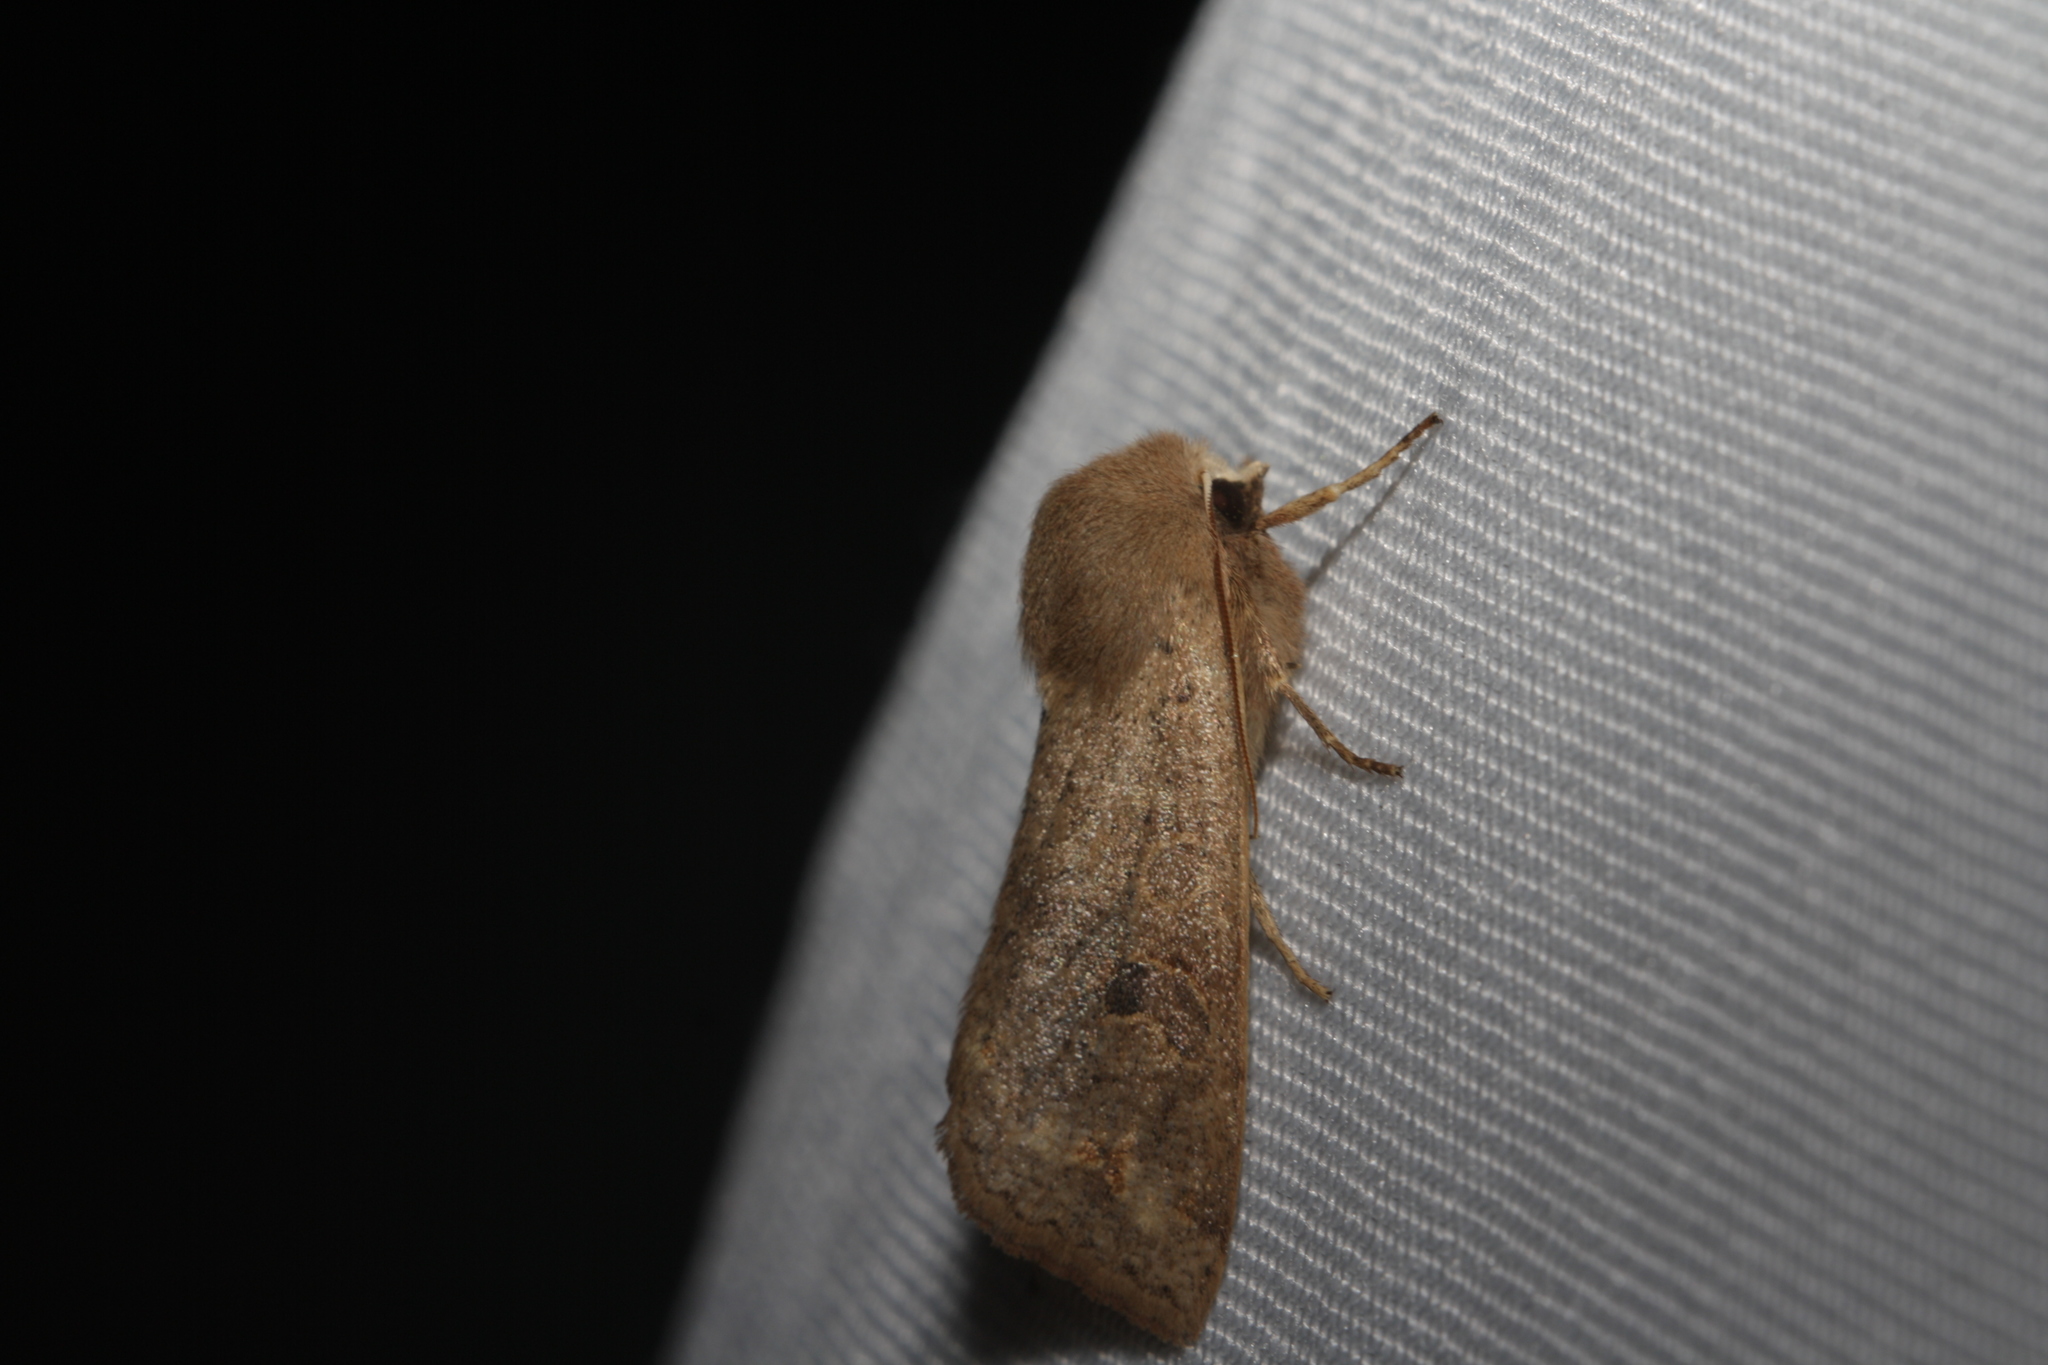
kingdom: Animalia
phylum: Arthropoda
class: Insecta
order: Lepidoptera
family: Noctuidae
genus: Orthosia
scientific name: Orthosia cruda
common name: Small quaker
